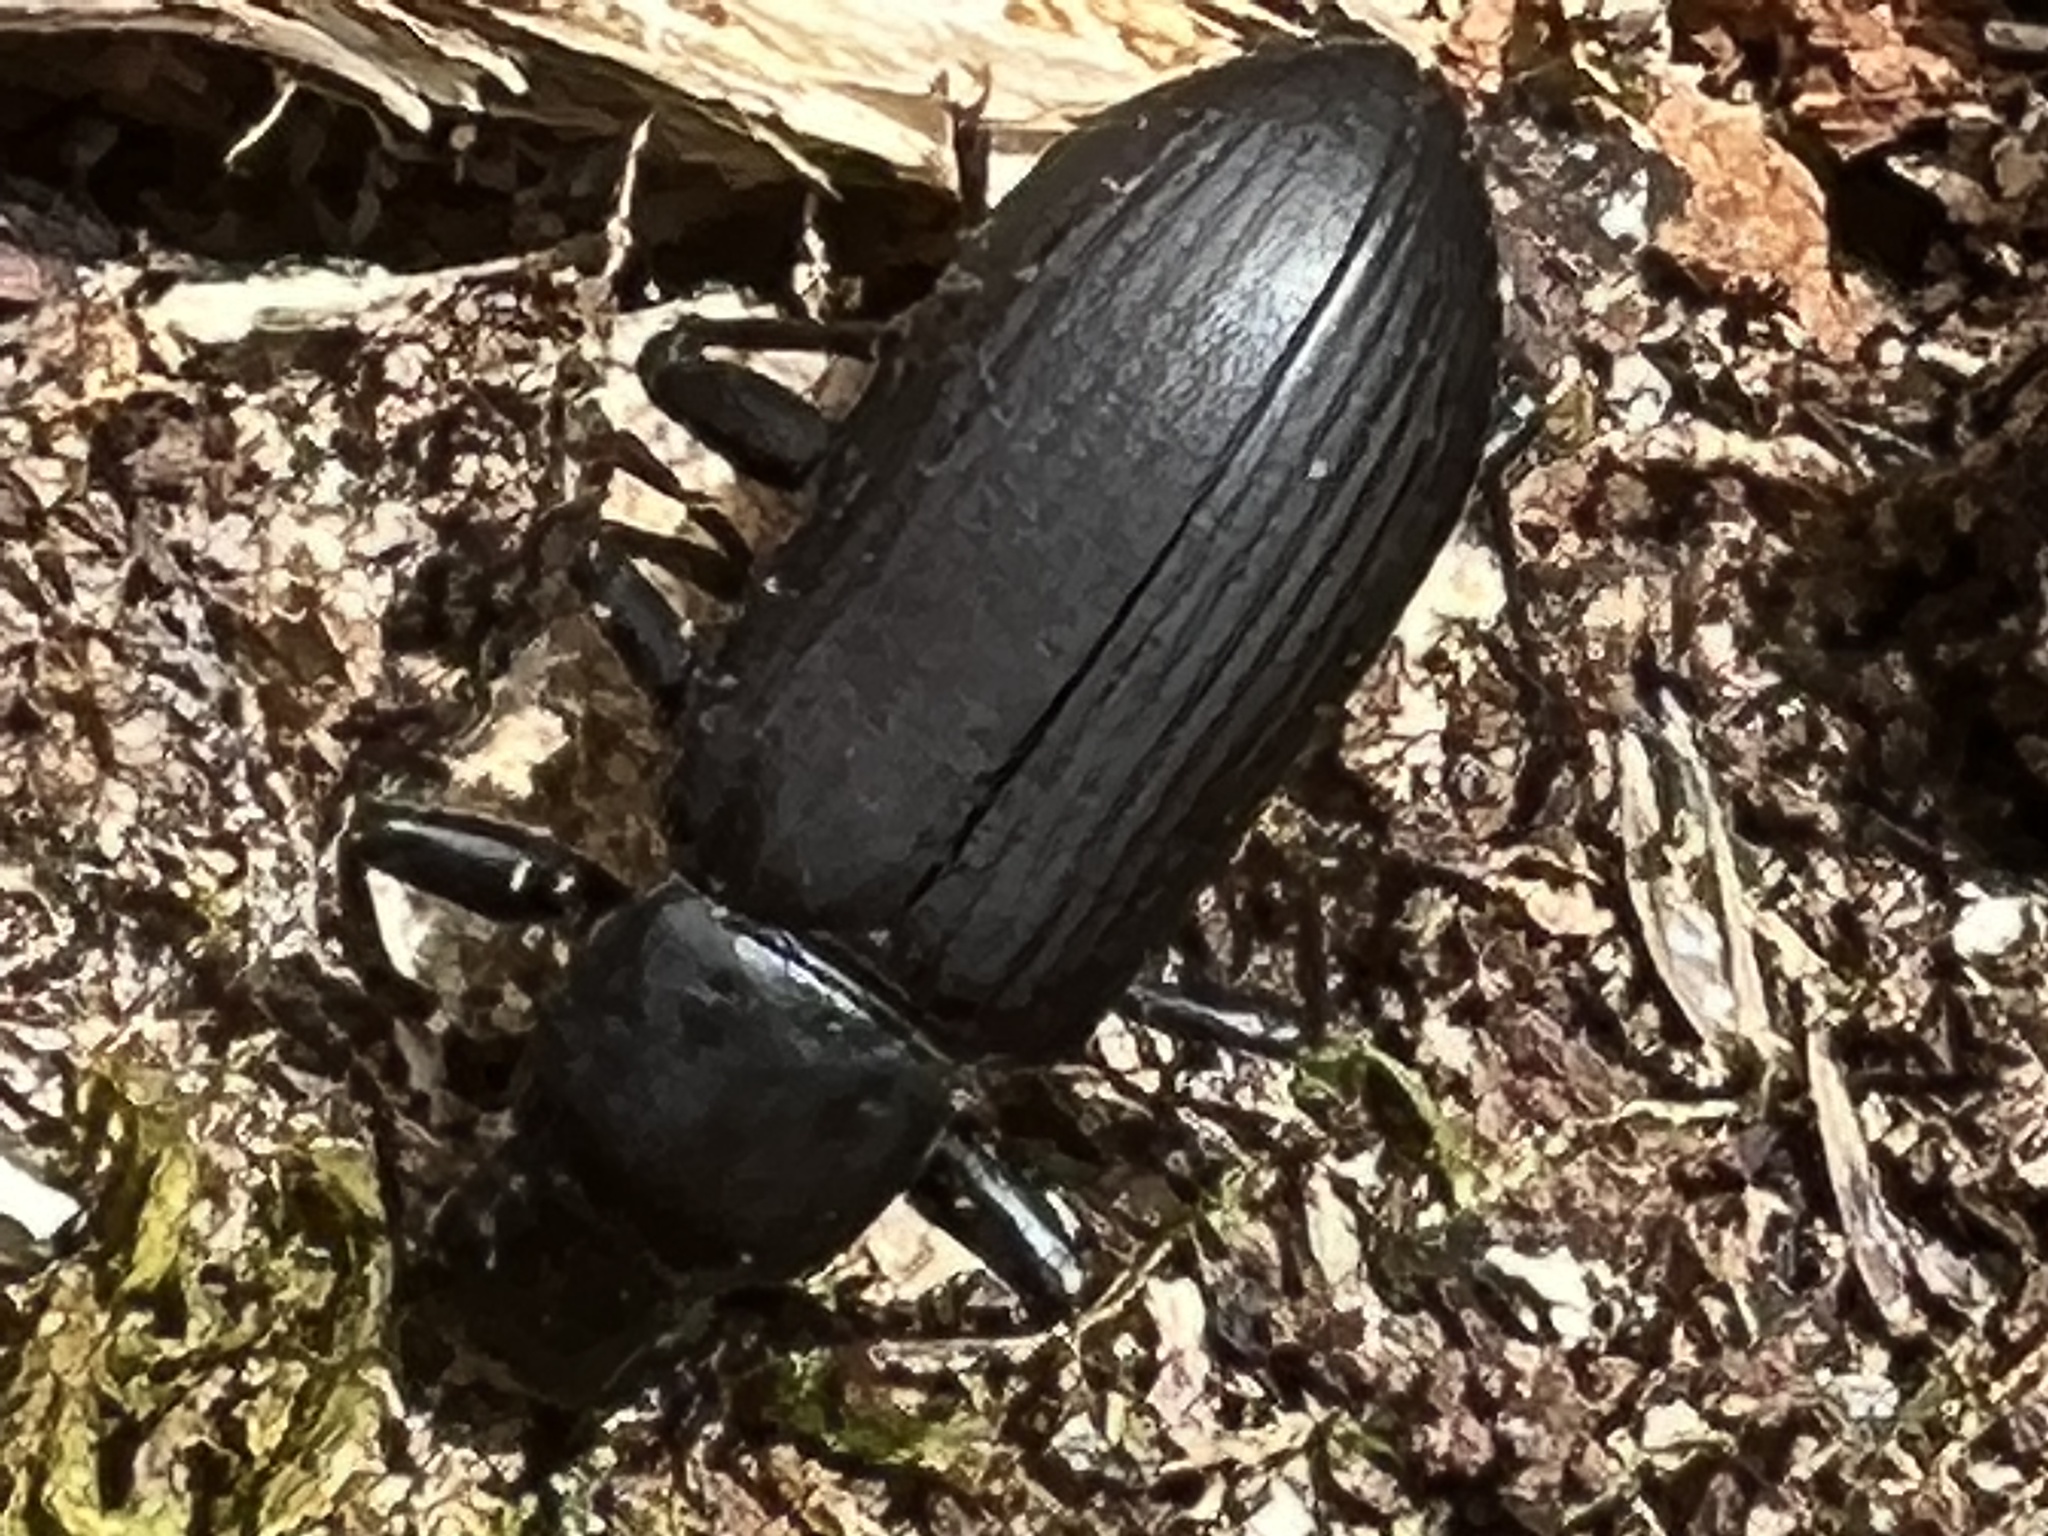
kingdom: Animalia
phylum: Arthropoda
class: Insecta
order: Coleoptera
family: Tenebrionidae
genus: Alobates
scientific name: Alobates
